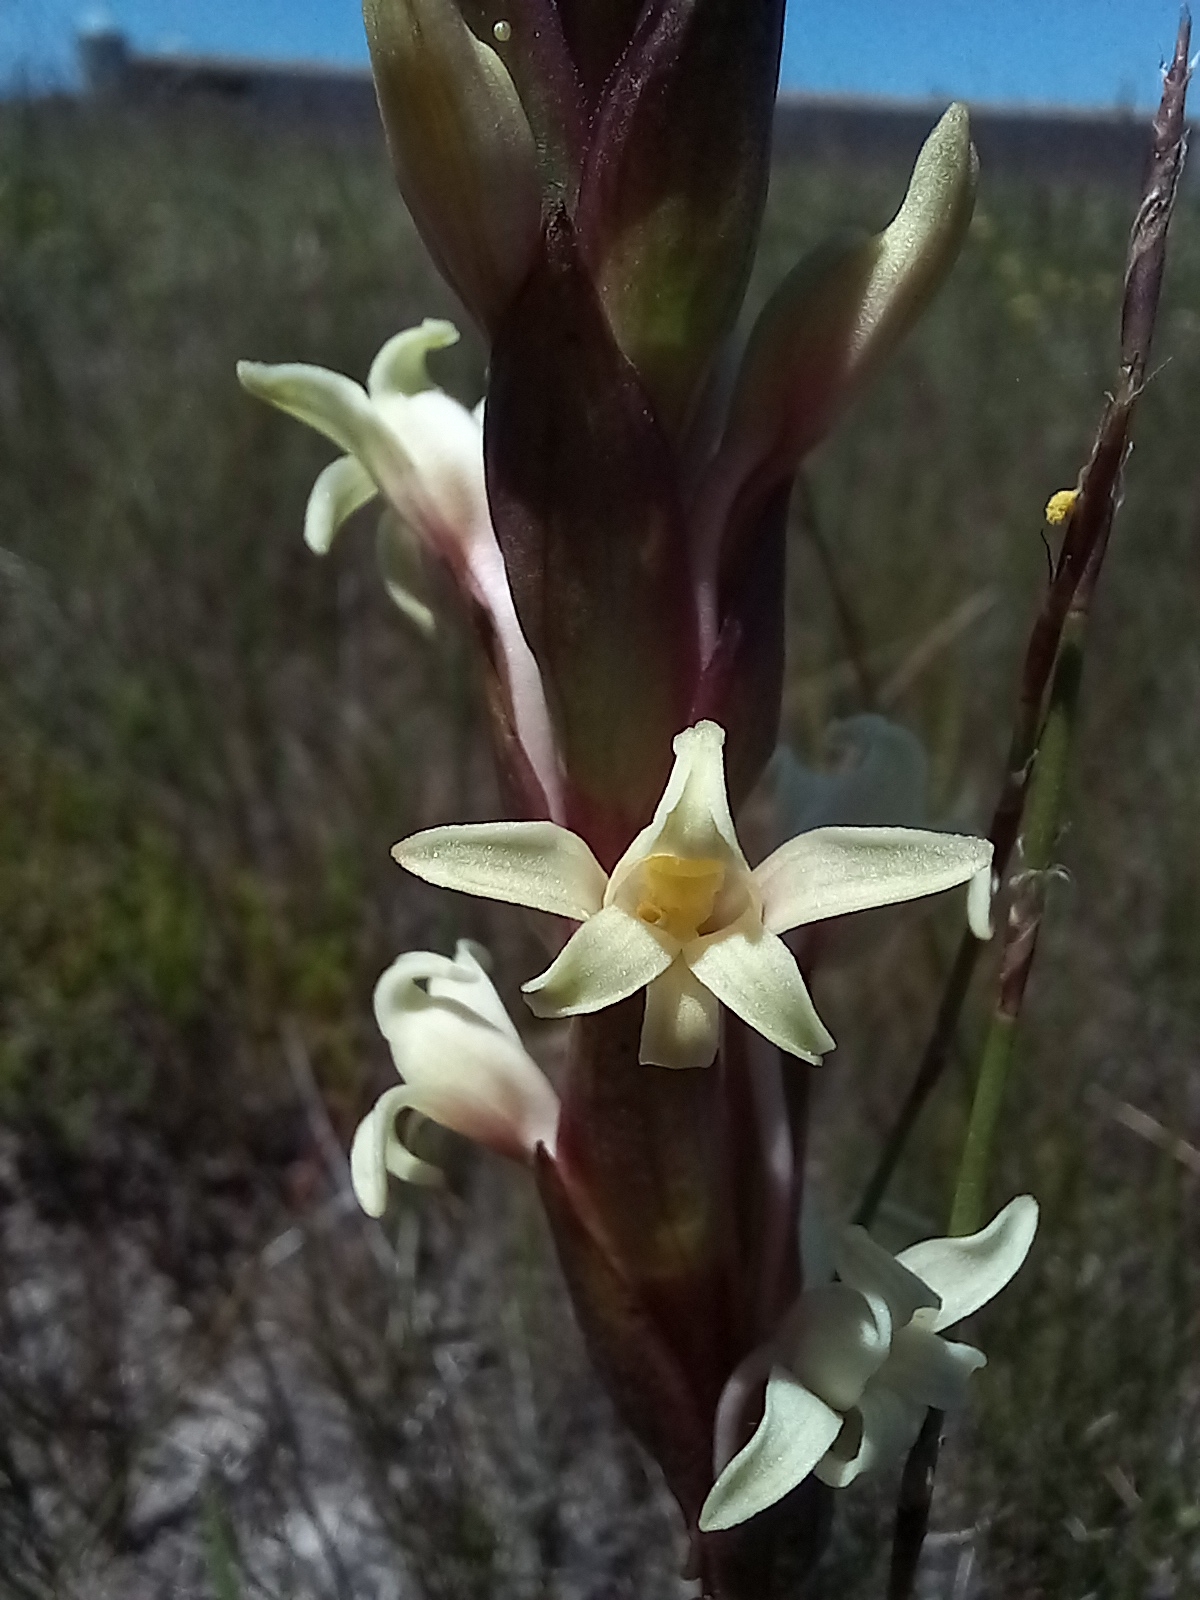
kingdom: Plantae
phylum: Tracheophyta
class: Liliopsida
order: Asparagales
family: Orchidaceae
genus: Satyrium
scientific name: Satyrium stenopetalum
